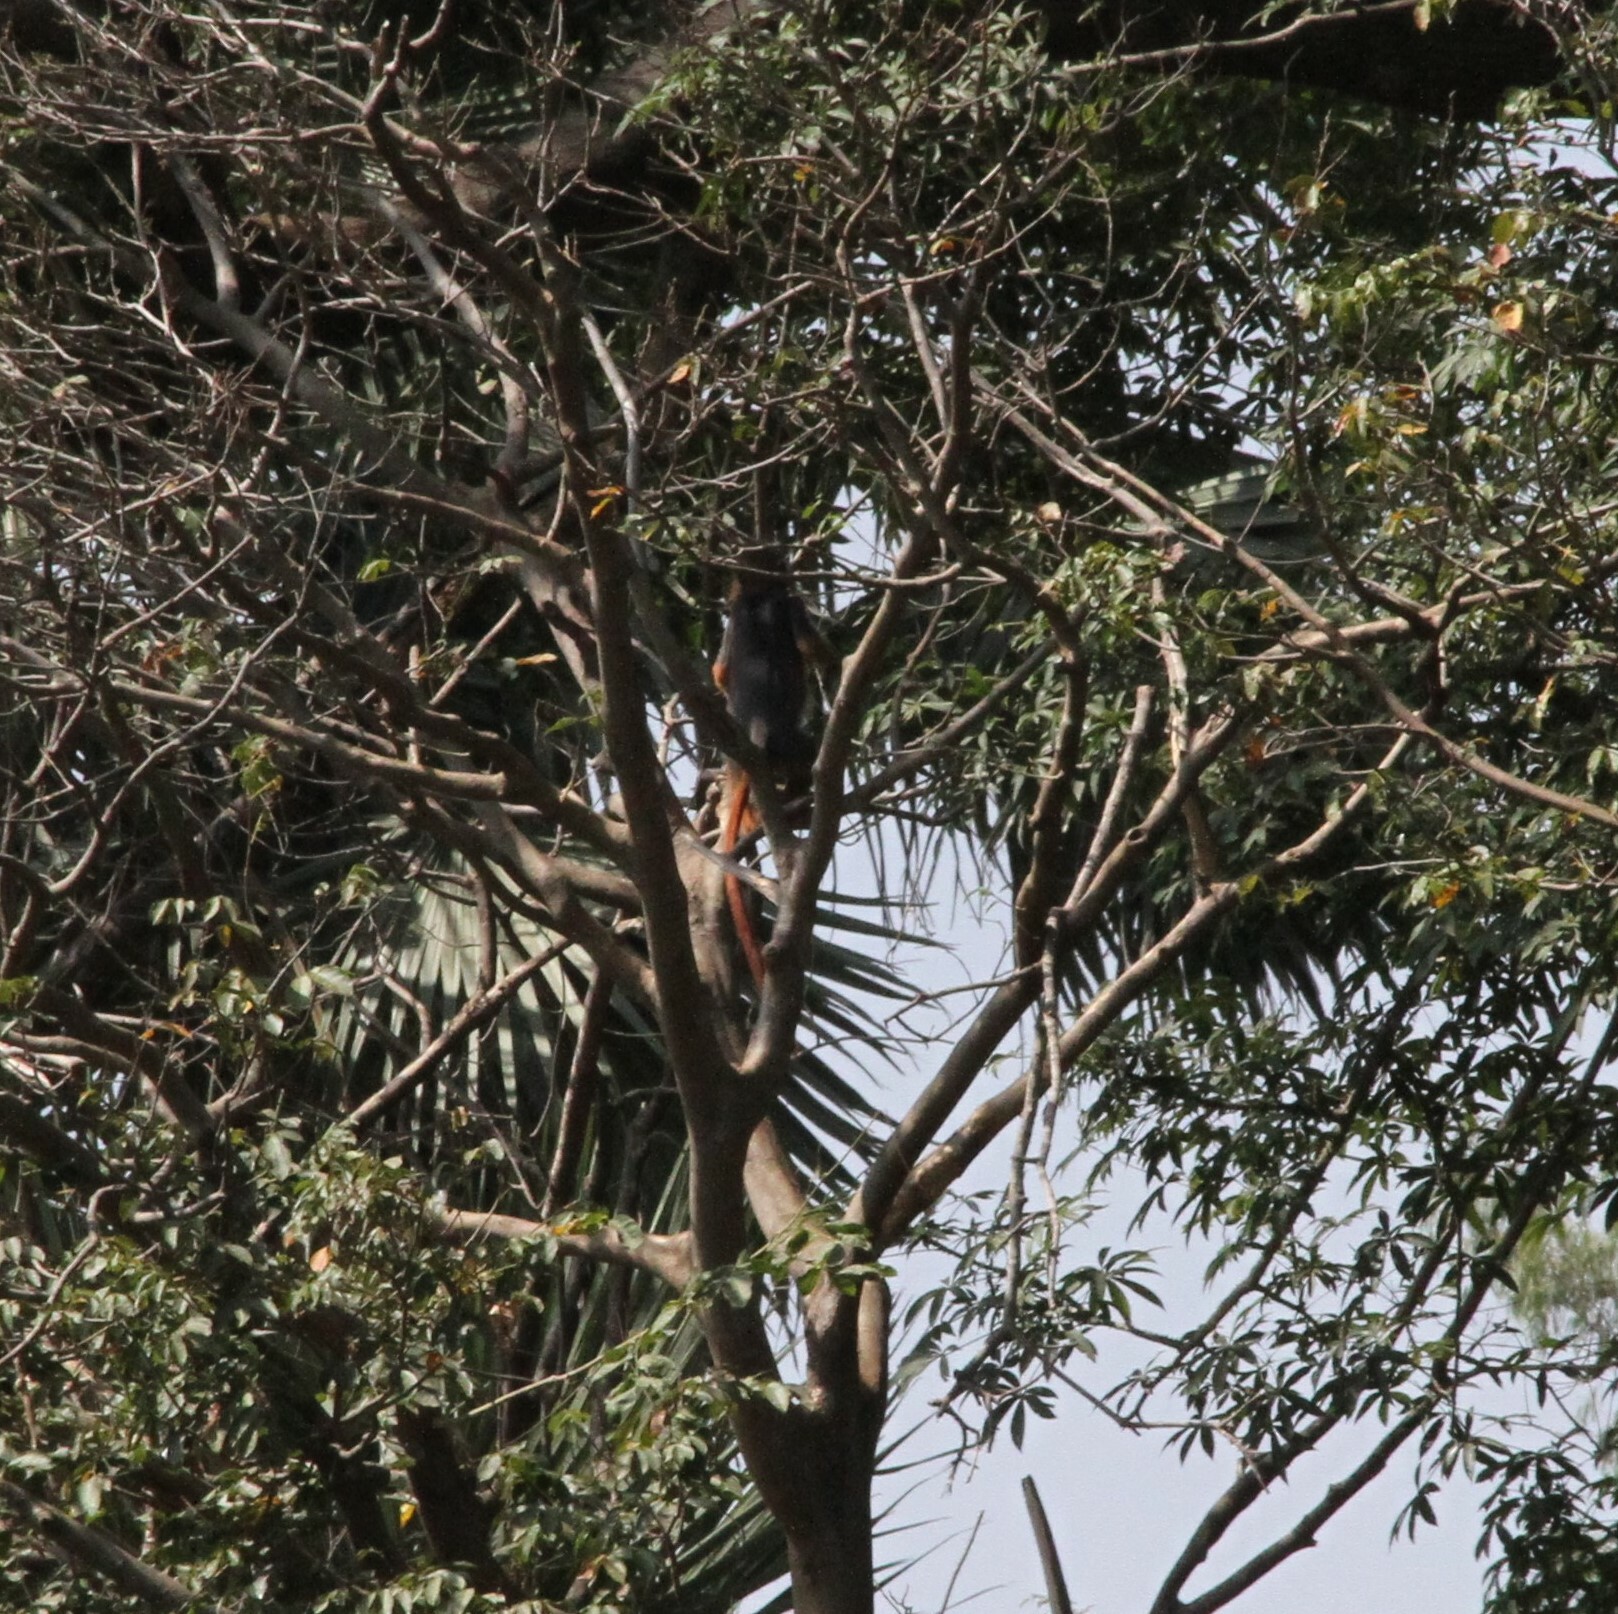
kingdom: Animalia
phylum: Chordata
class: Mammalia
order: Primates
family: Cercopithecidae
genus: Piliocolobus
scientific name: Piliocolobus badius
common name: Western red colobus
